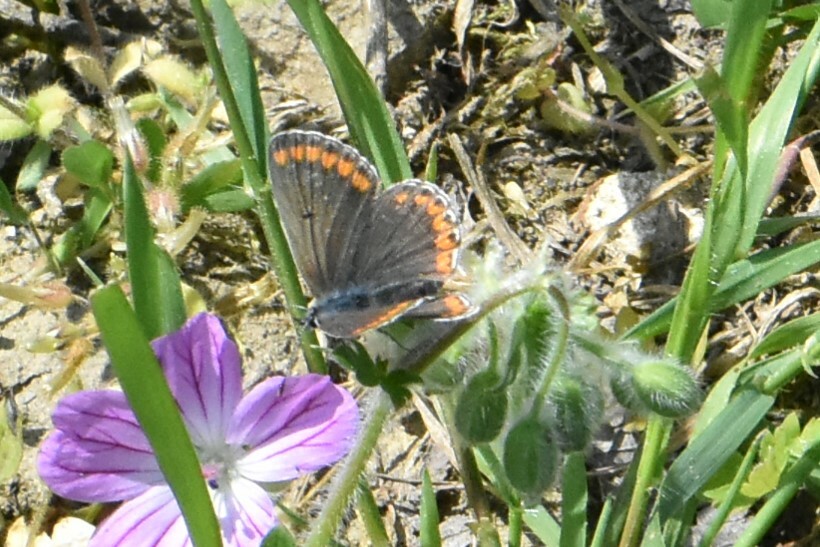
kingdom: Animalia
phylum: Arthropoda
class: Insecta
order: Lepidoptera
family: Lycaenidae
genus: Aricia
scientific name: Aricia agestis
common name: Brown argus
